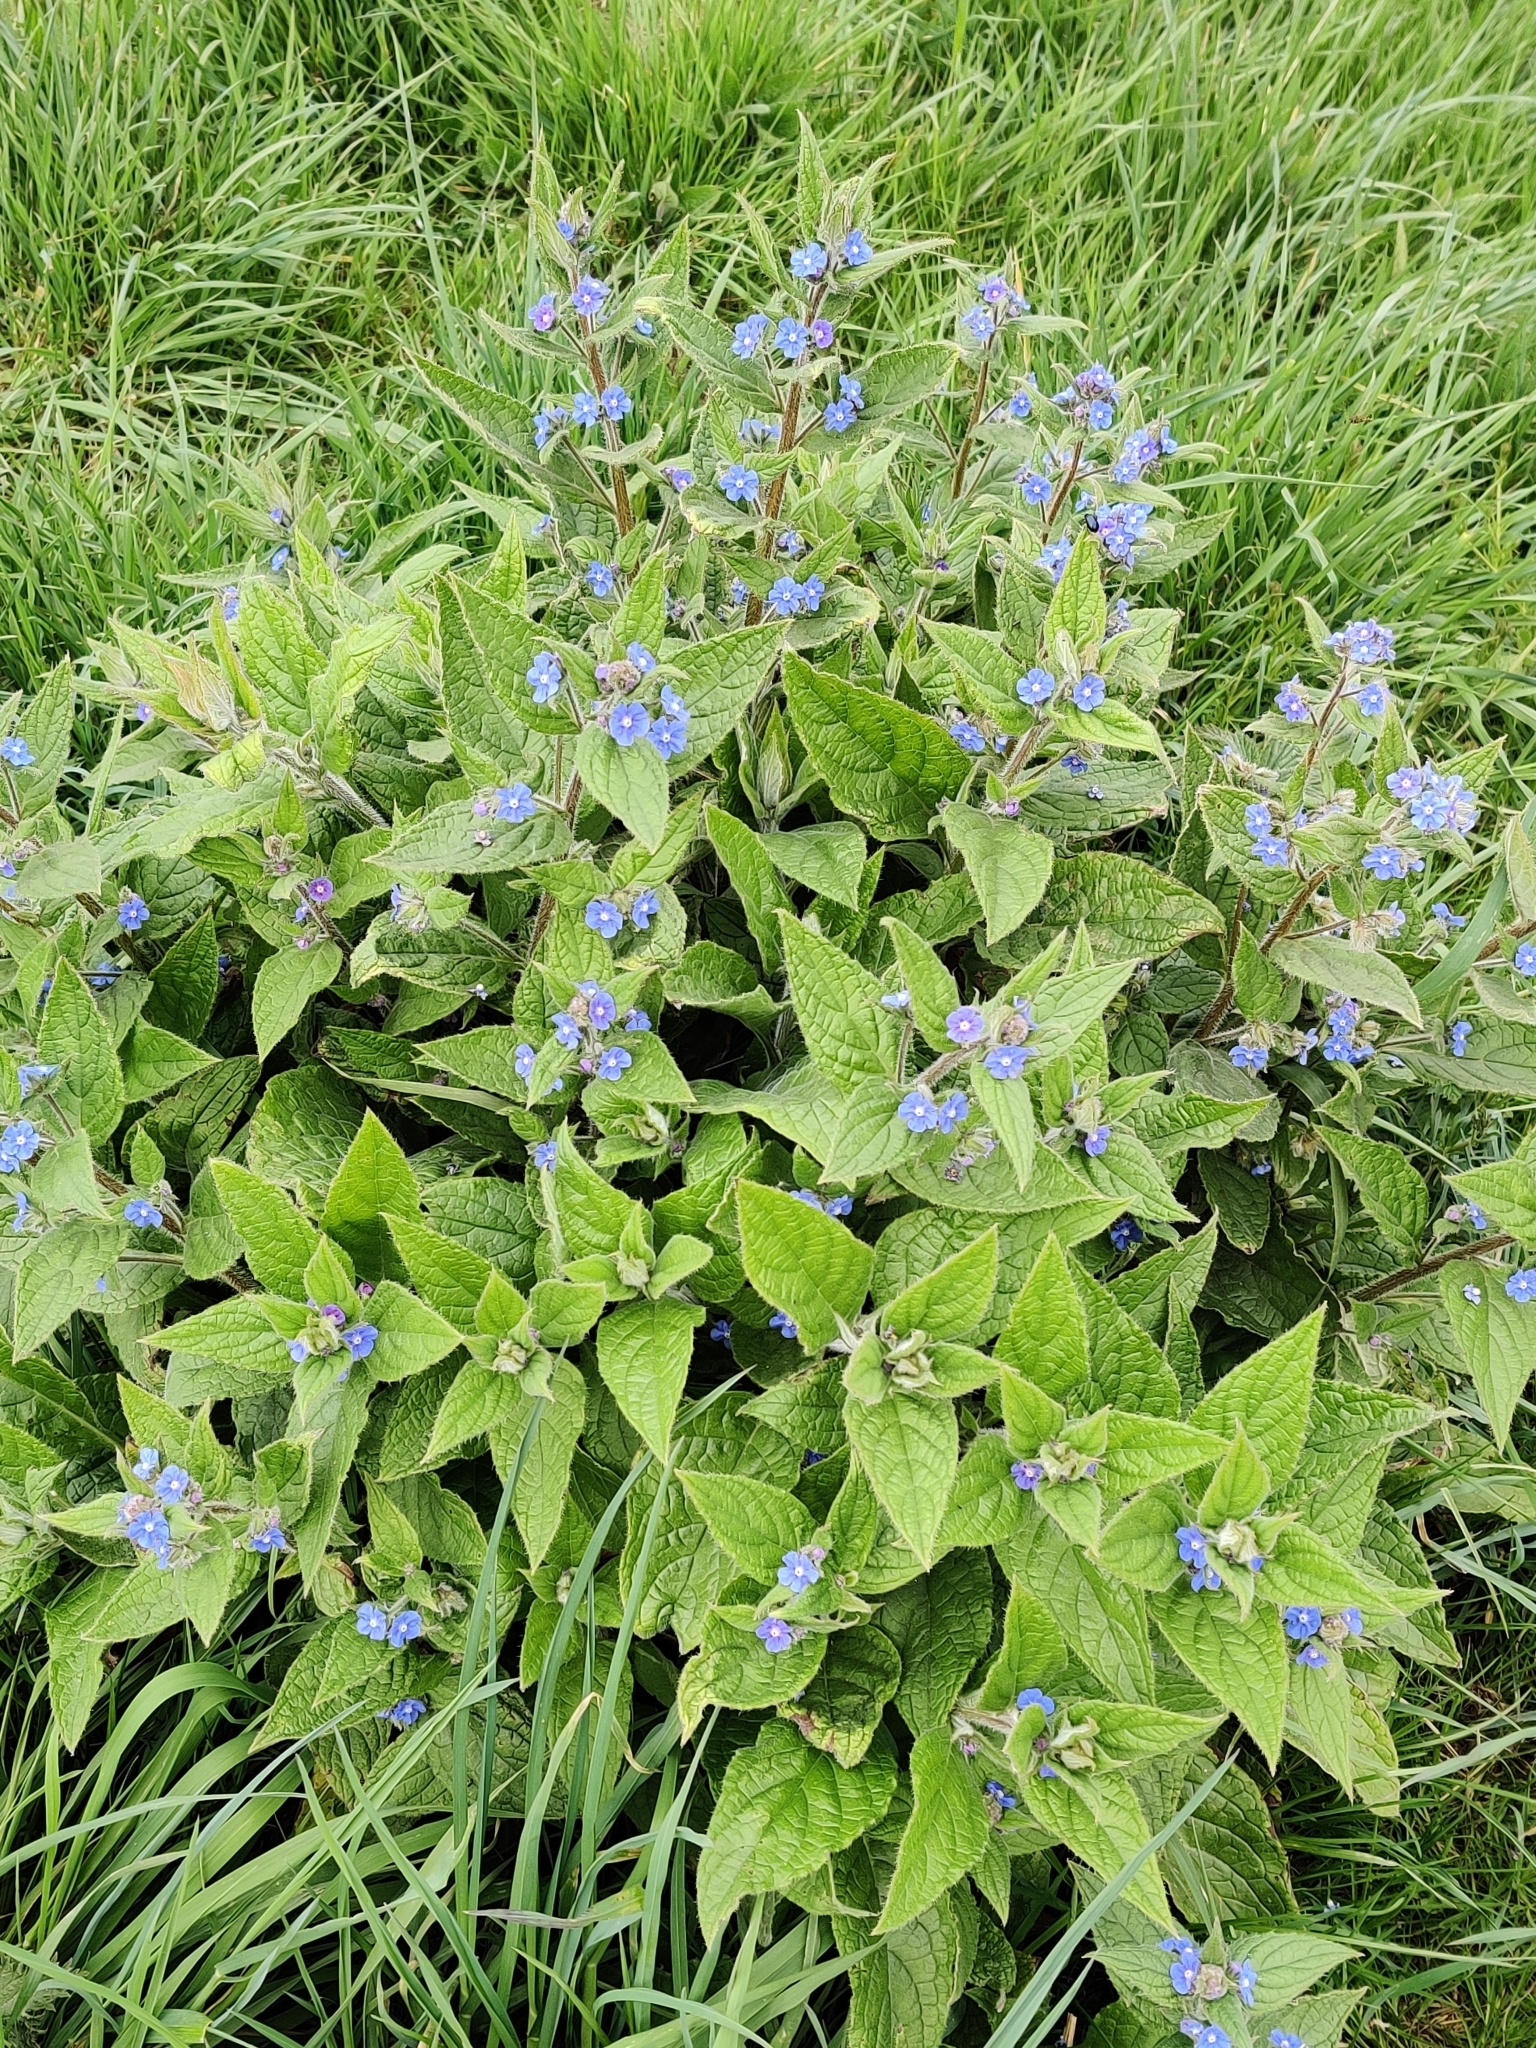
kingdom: Plantae
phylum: Tracheophyta
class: Magnoliopsida
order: Boraginales
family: Boraginaceae
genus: Pentaglottis
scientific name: Pentaglottis sempervirens
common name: Green alkanet
